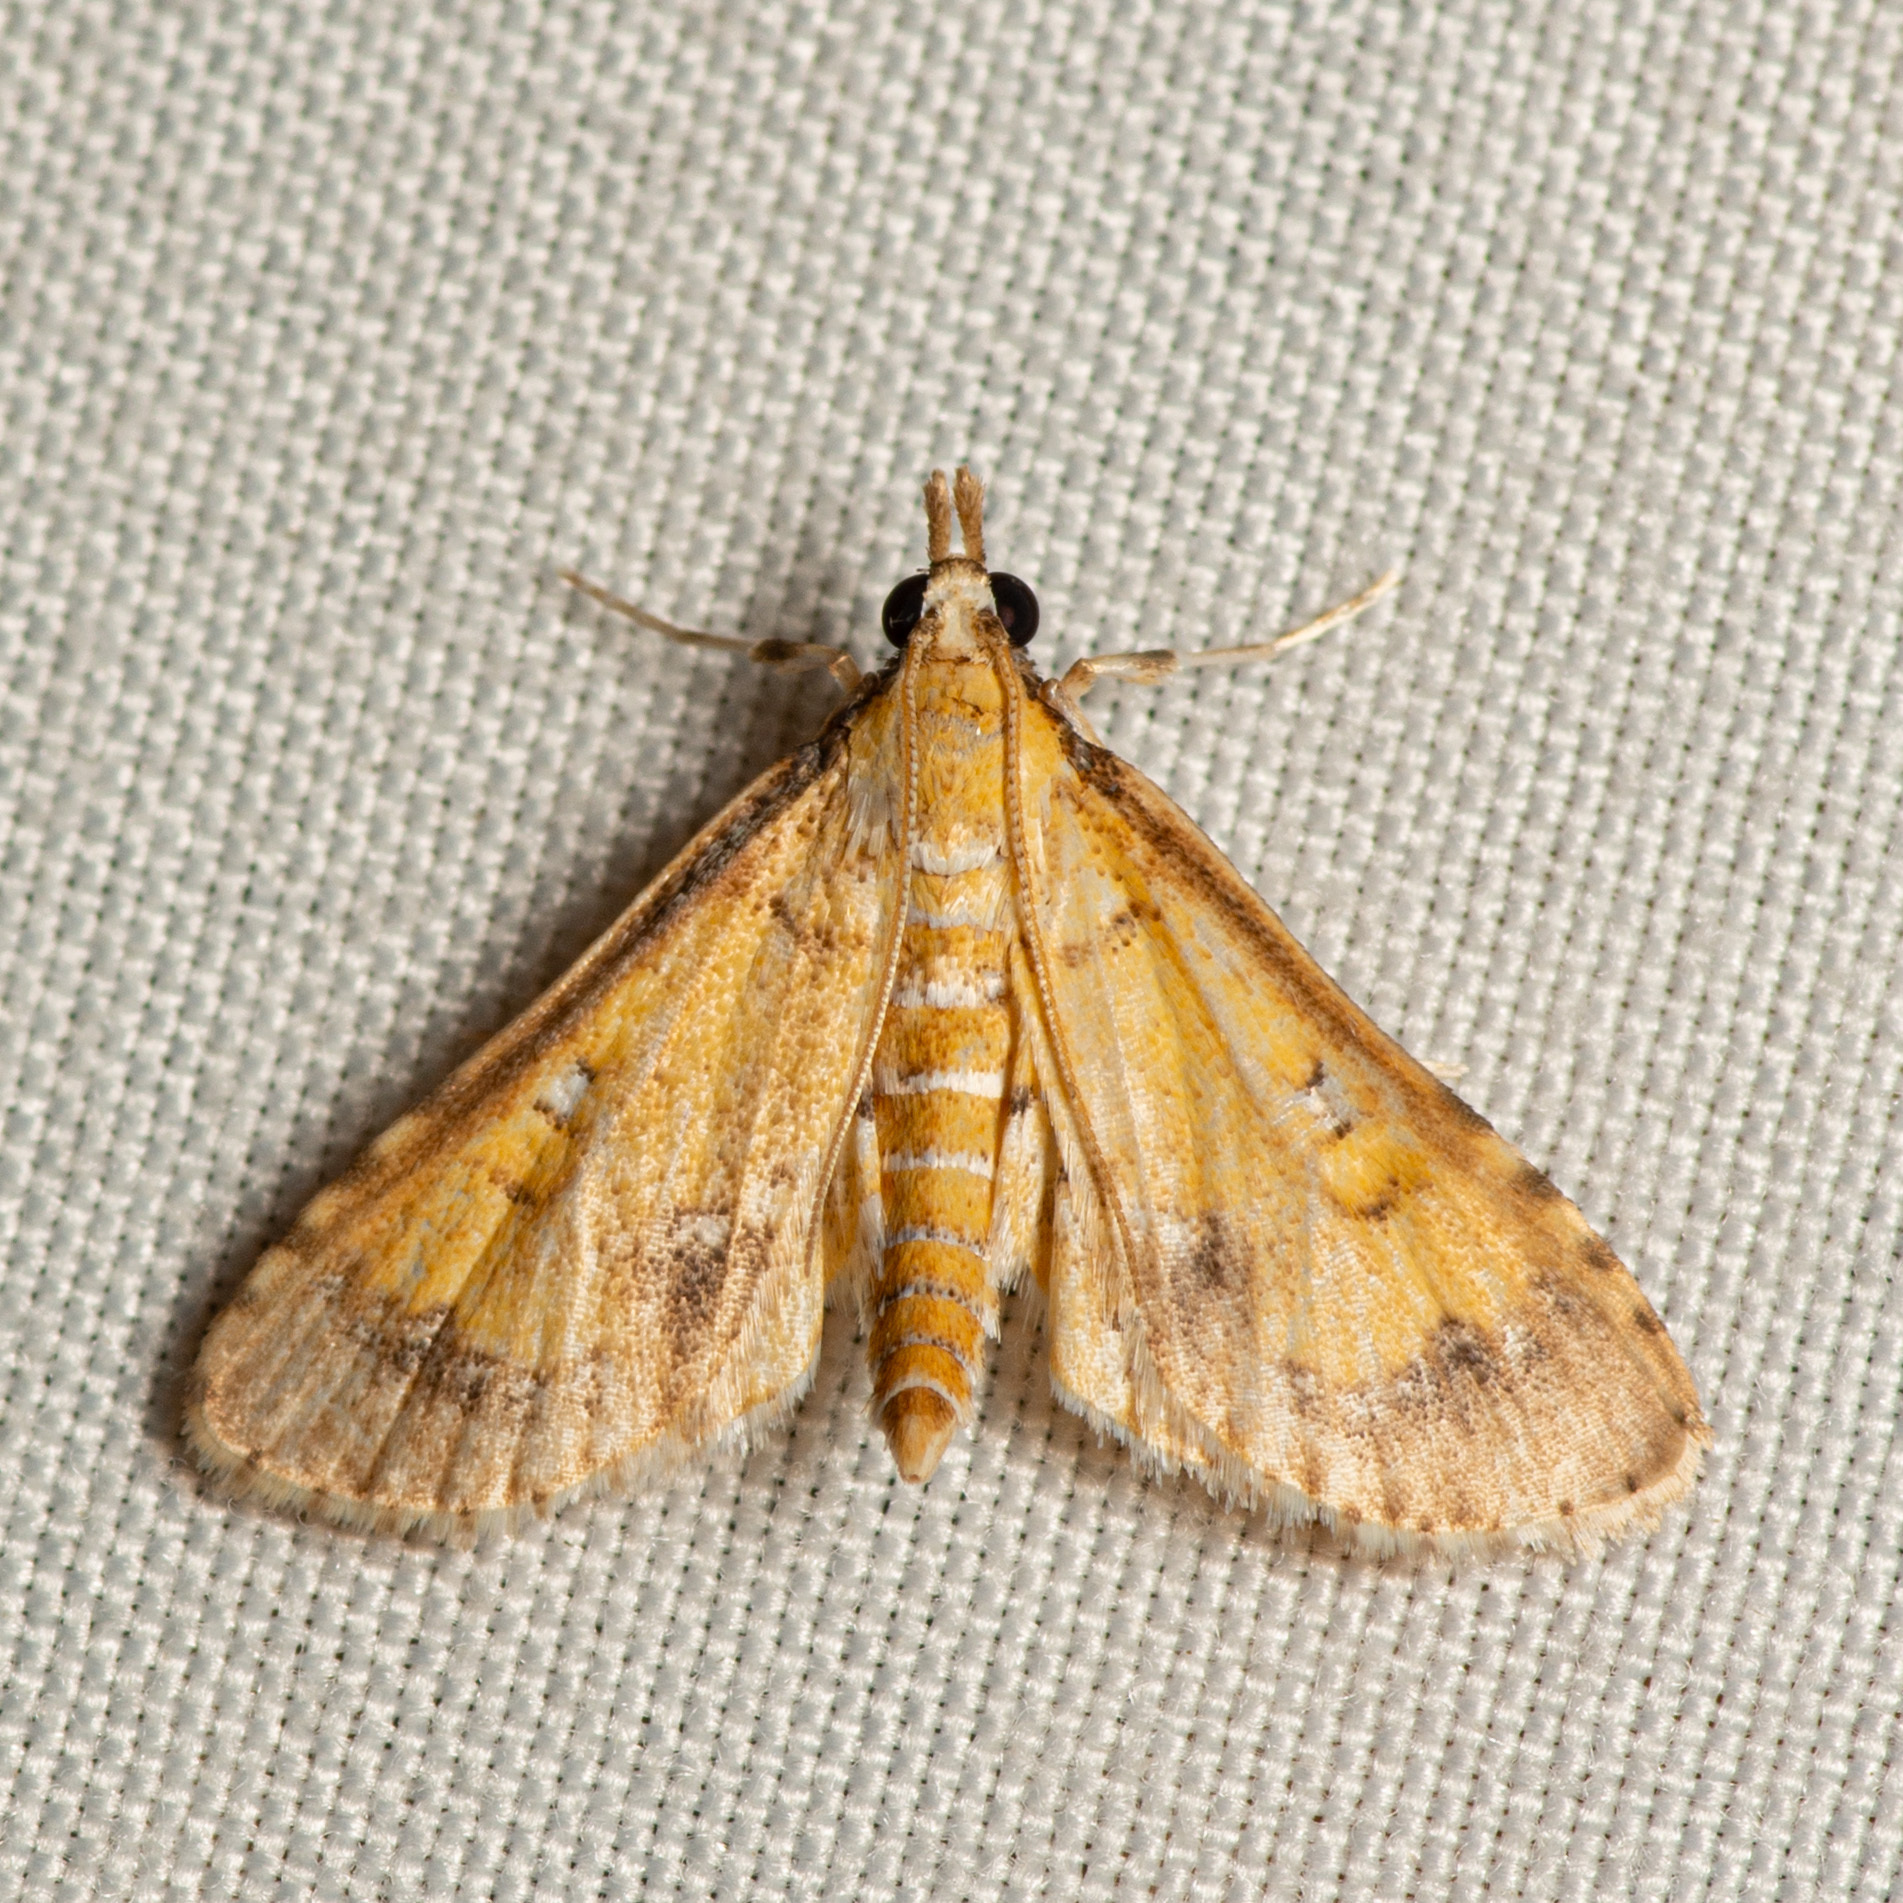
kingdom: Animalia
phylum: Arthropoda
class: Insecta
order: Lepidoptera
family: Crambidae
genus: Niphograpta
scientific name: Niphograpta albiguttalis
